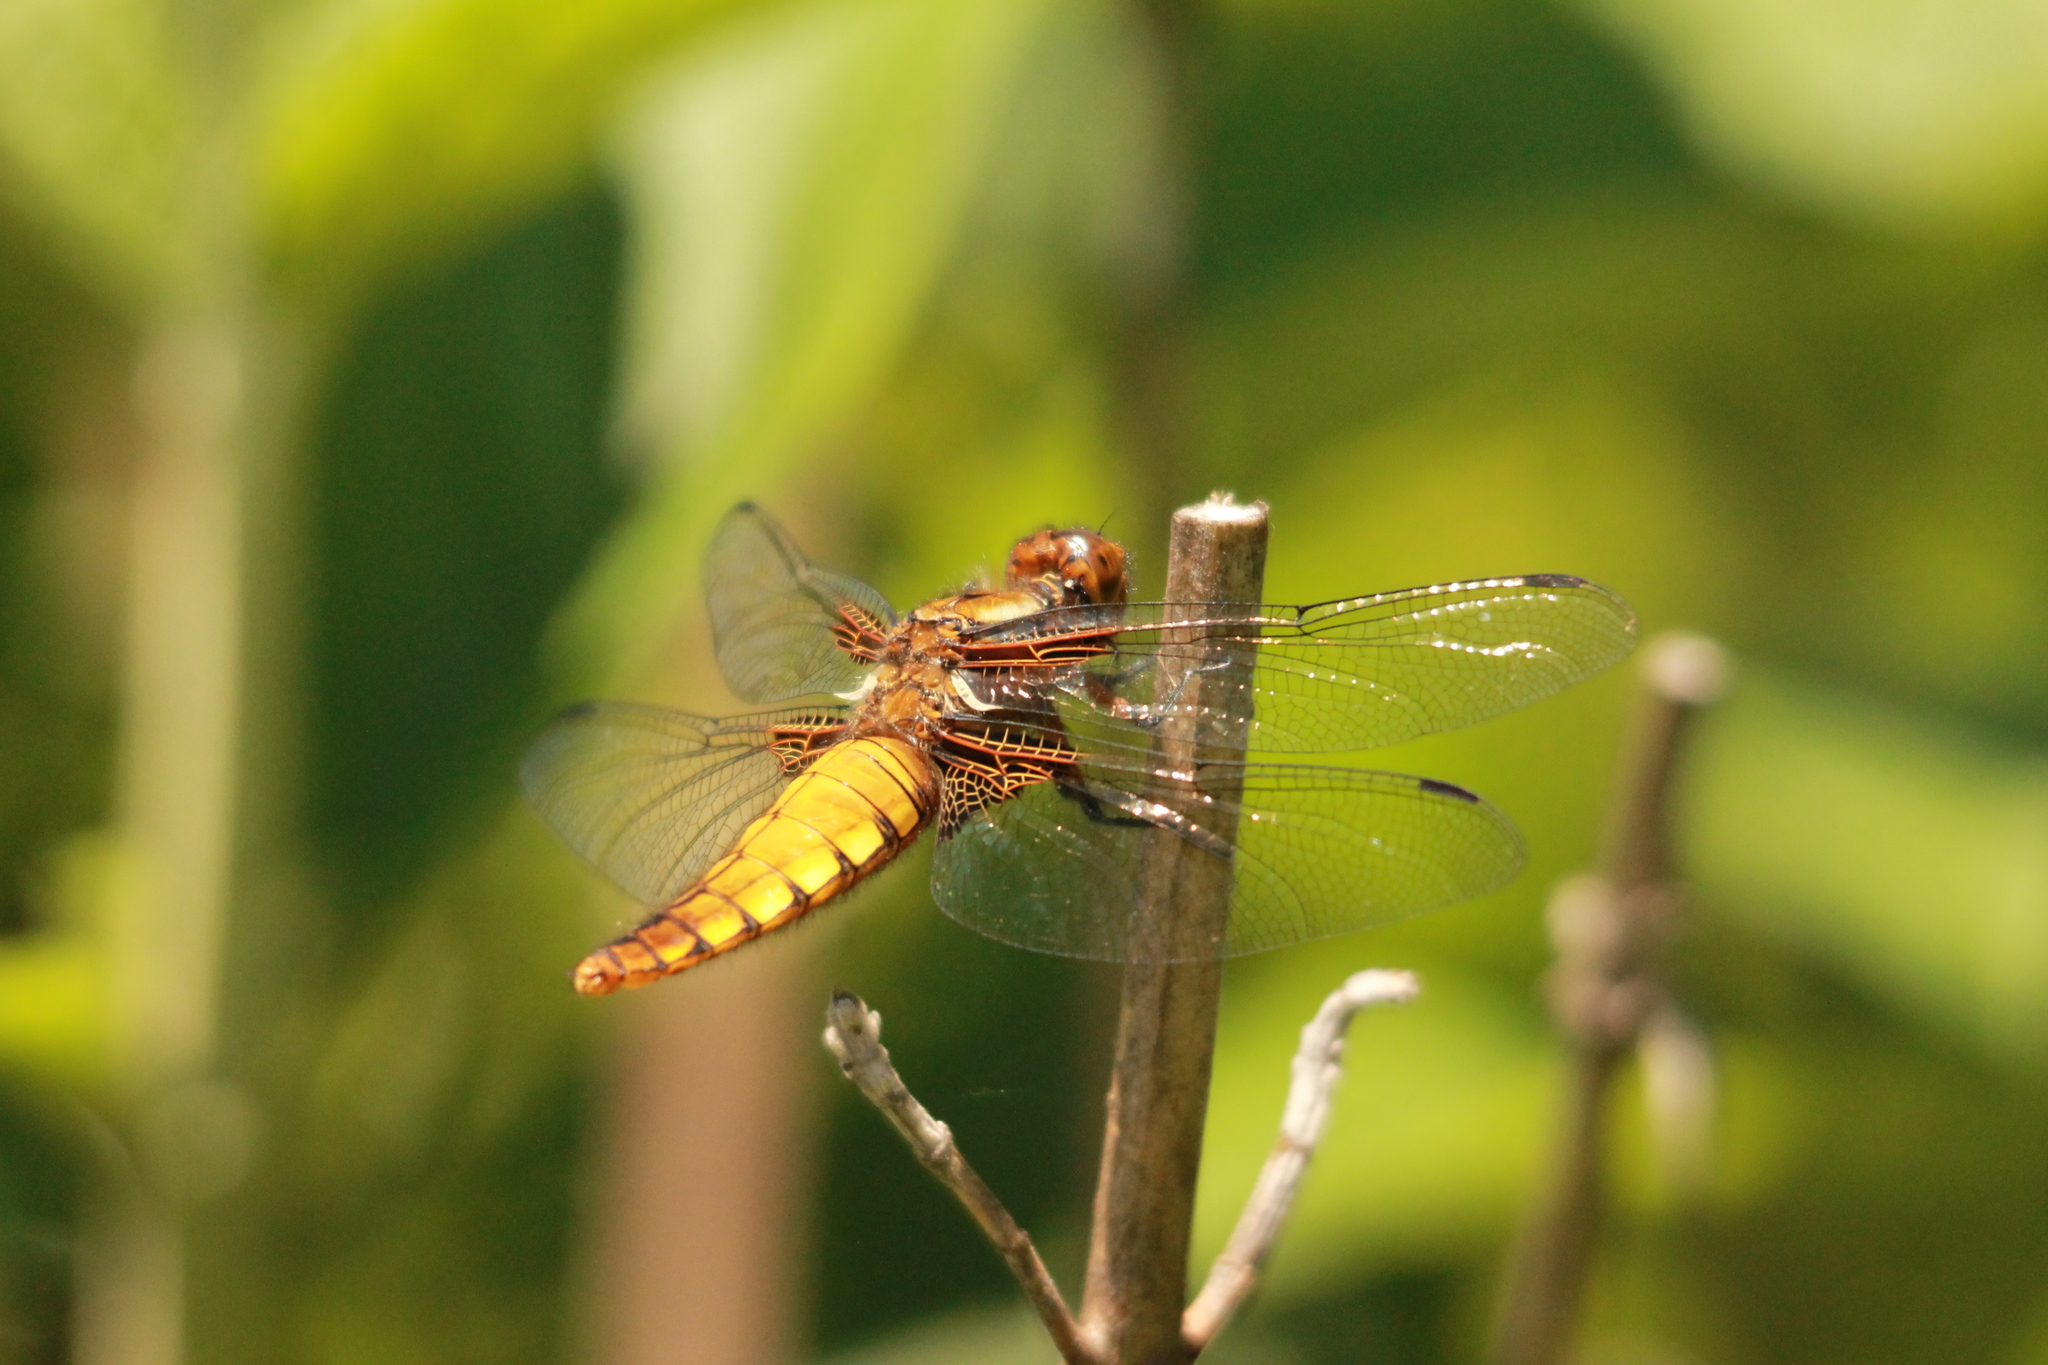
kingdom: Animalia
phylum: Arthropoda
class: Insecta
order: Odonata
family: Libellulidae
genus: Libellula
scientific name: Libellula depressa
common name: Broad-bodied chaser
